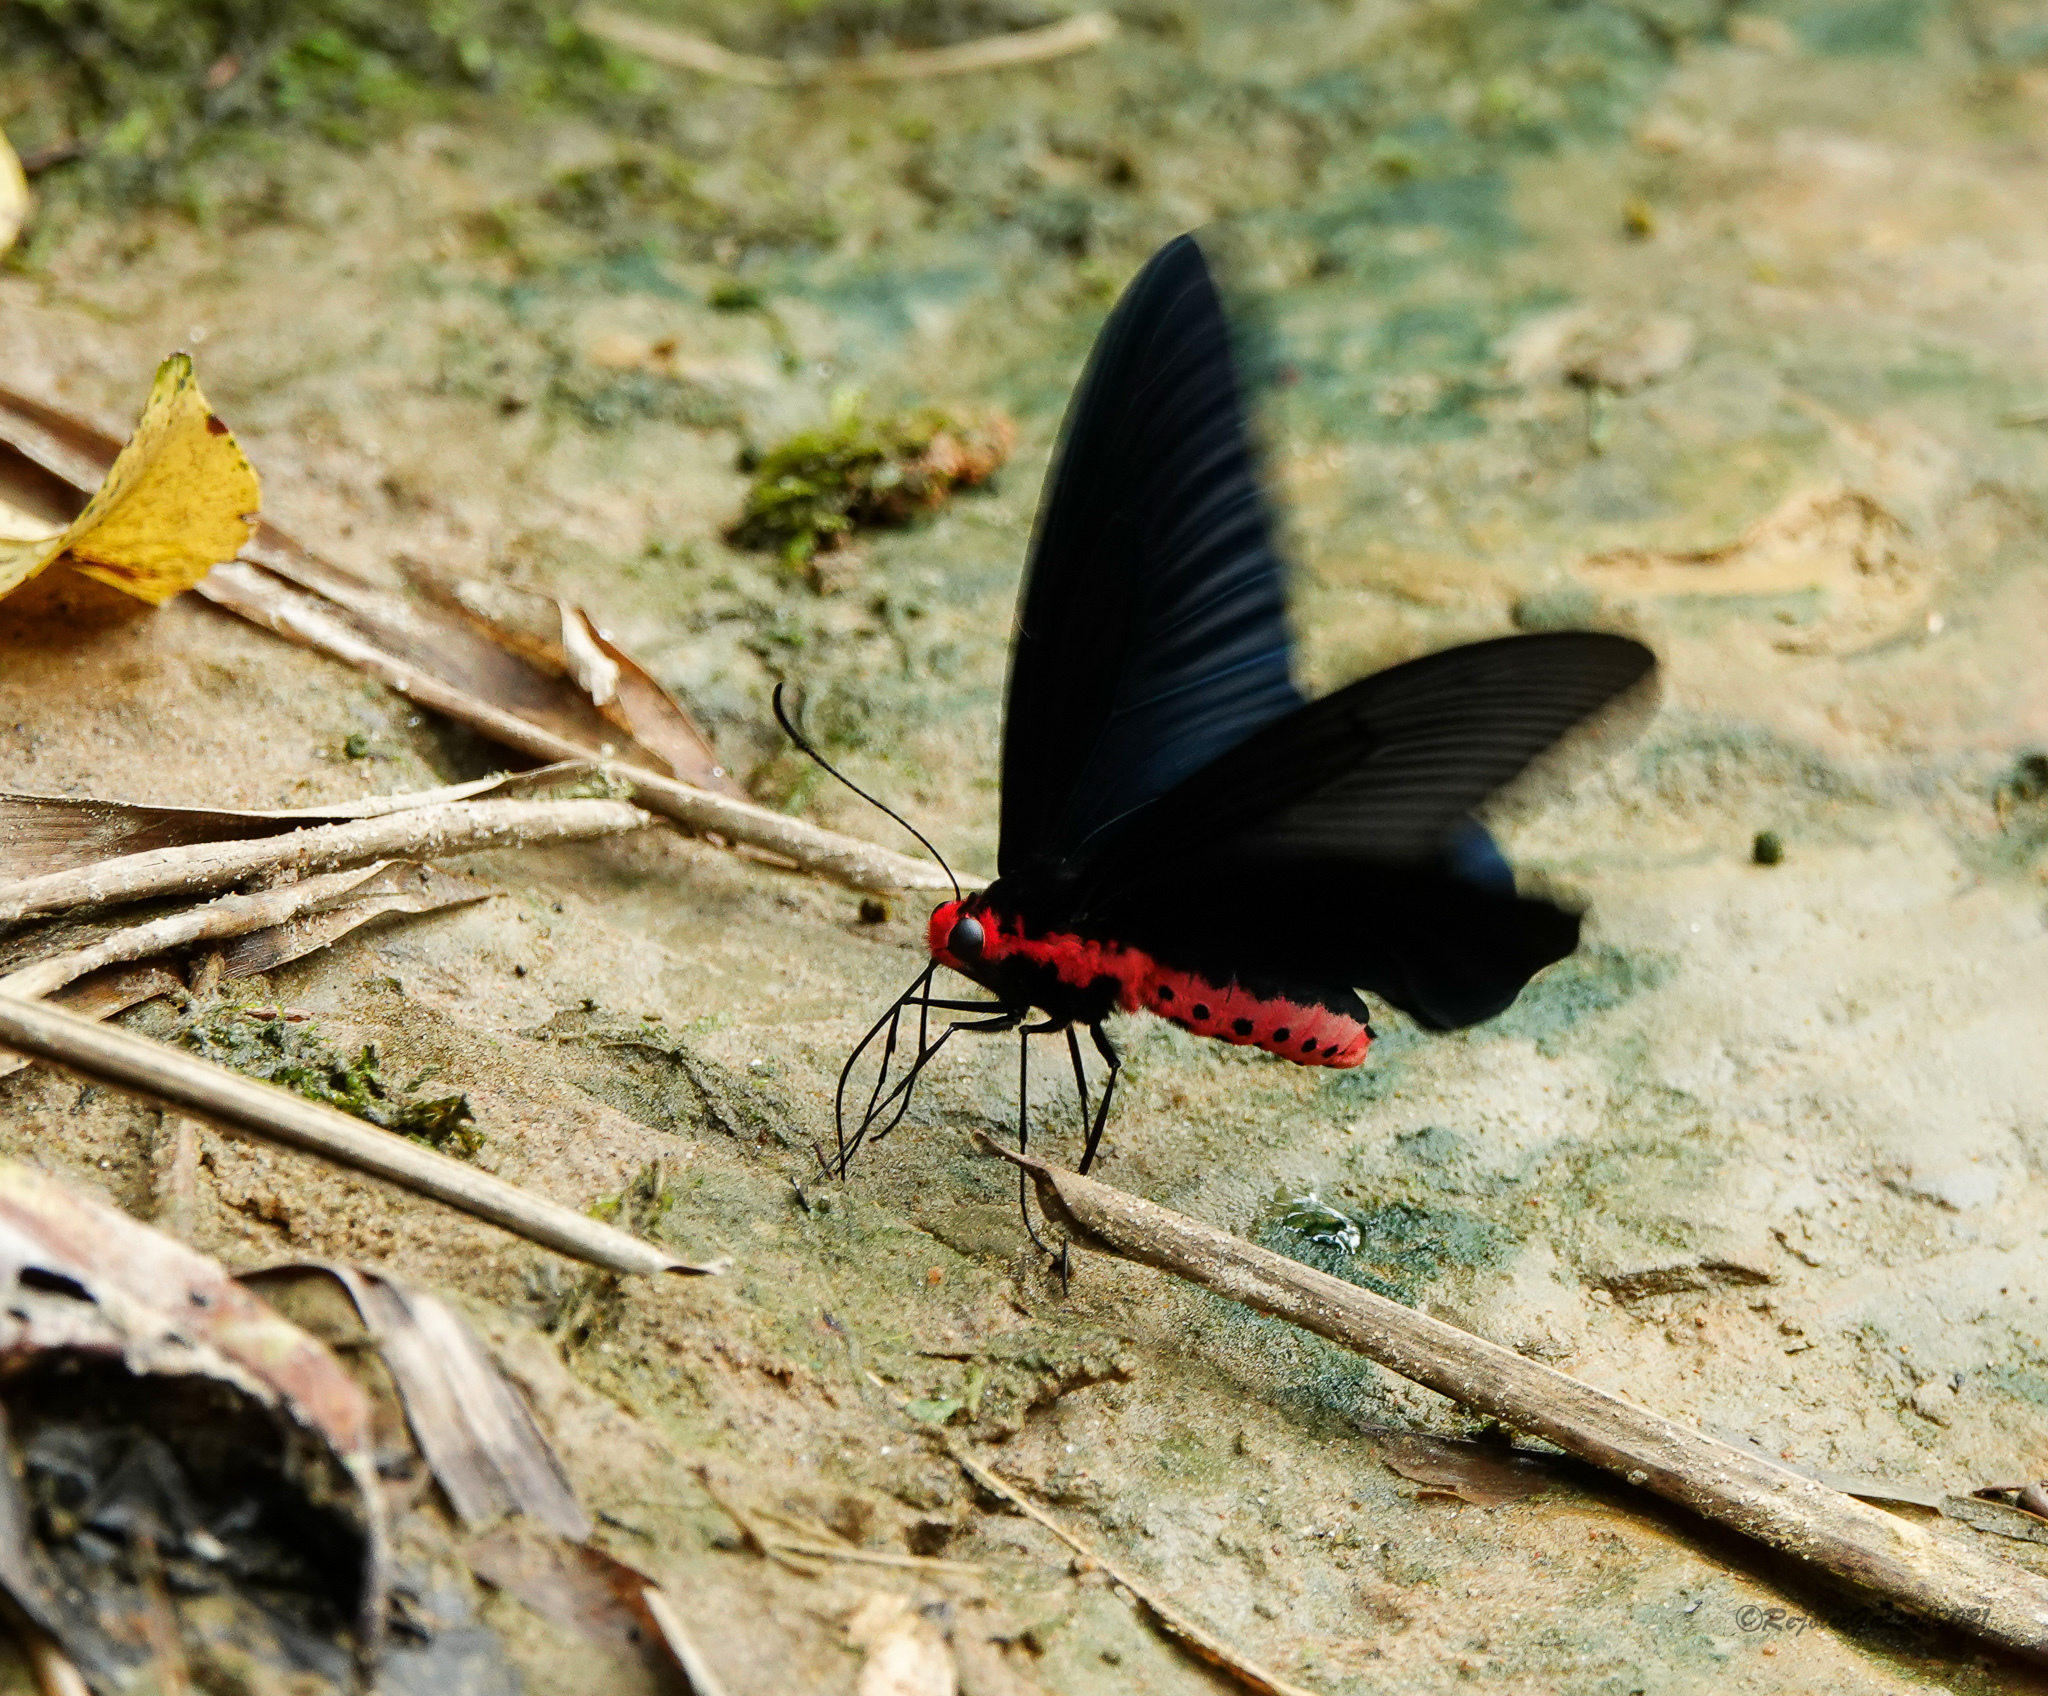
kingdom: Animalia
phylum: Arthropoda
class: Insecta
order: Lepidoptera
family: Papilionidae
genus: Atrophaneura
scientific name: Atrophaneura varuna
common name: Common batwing
